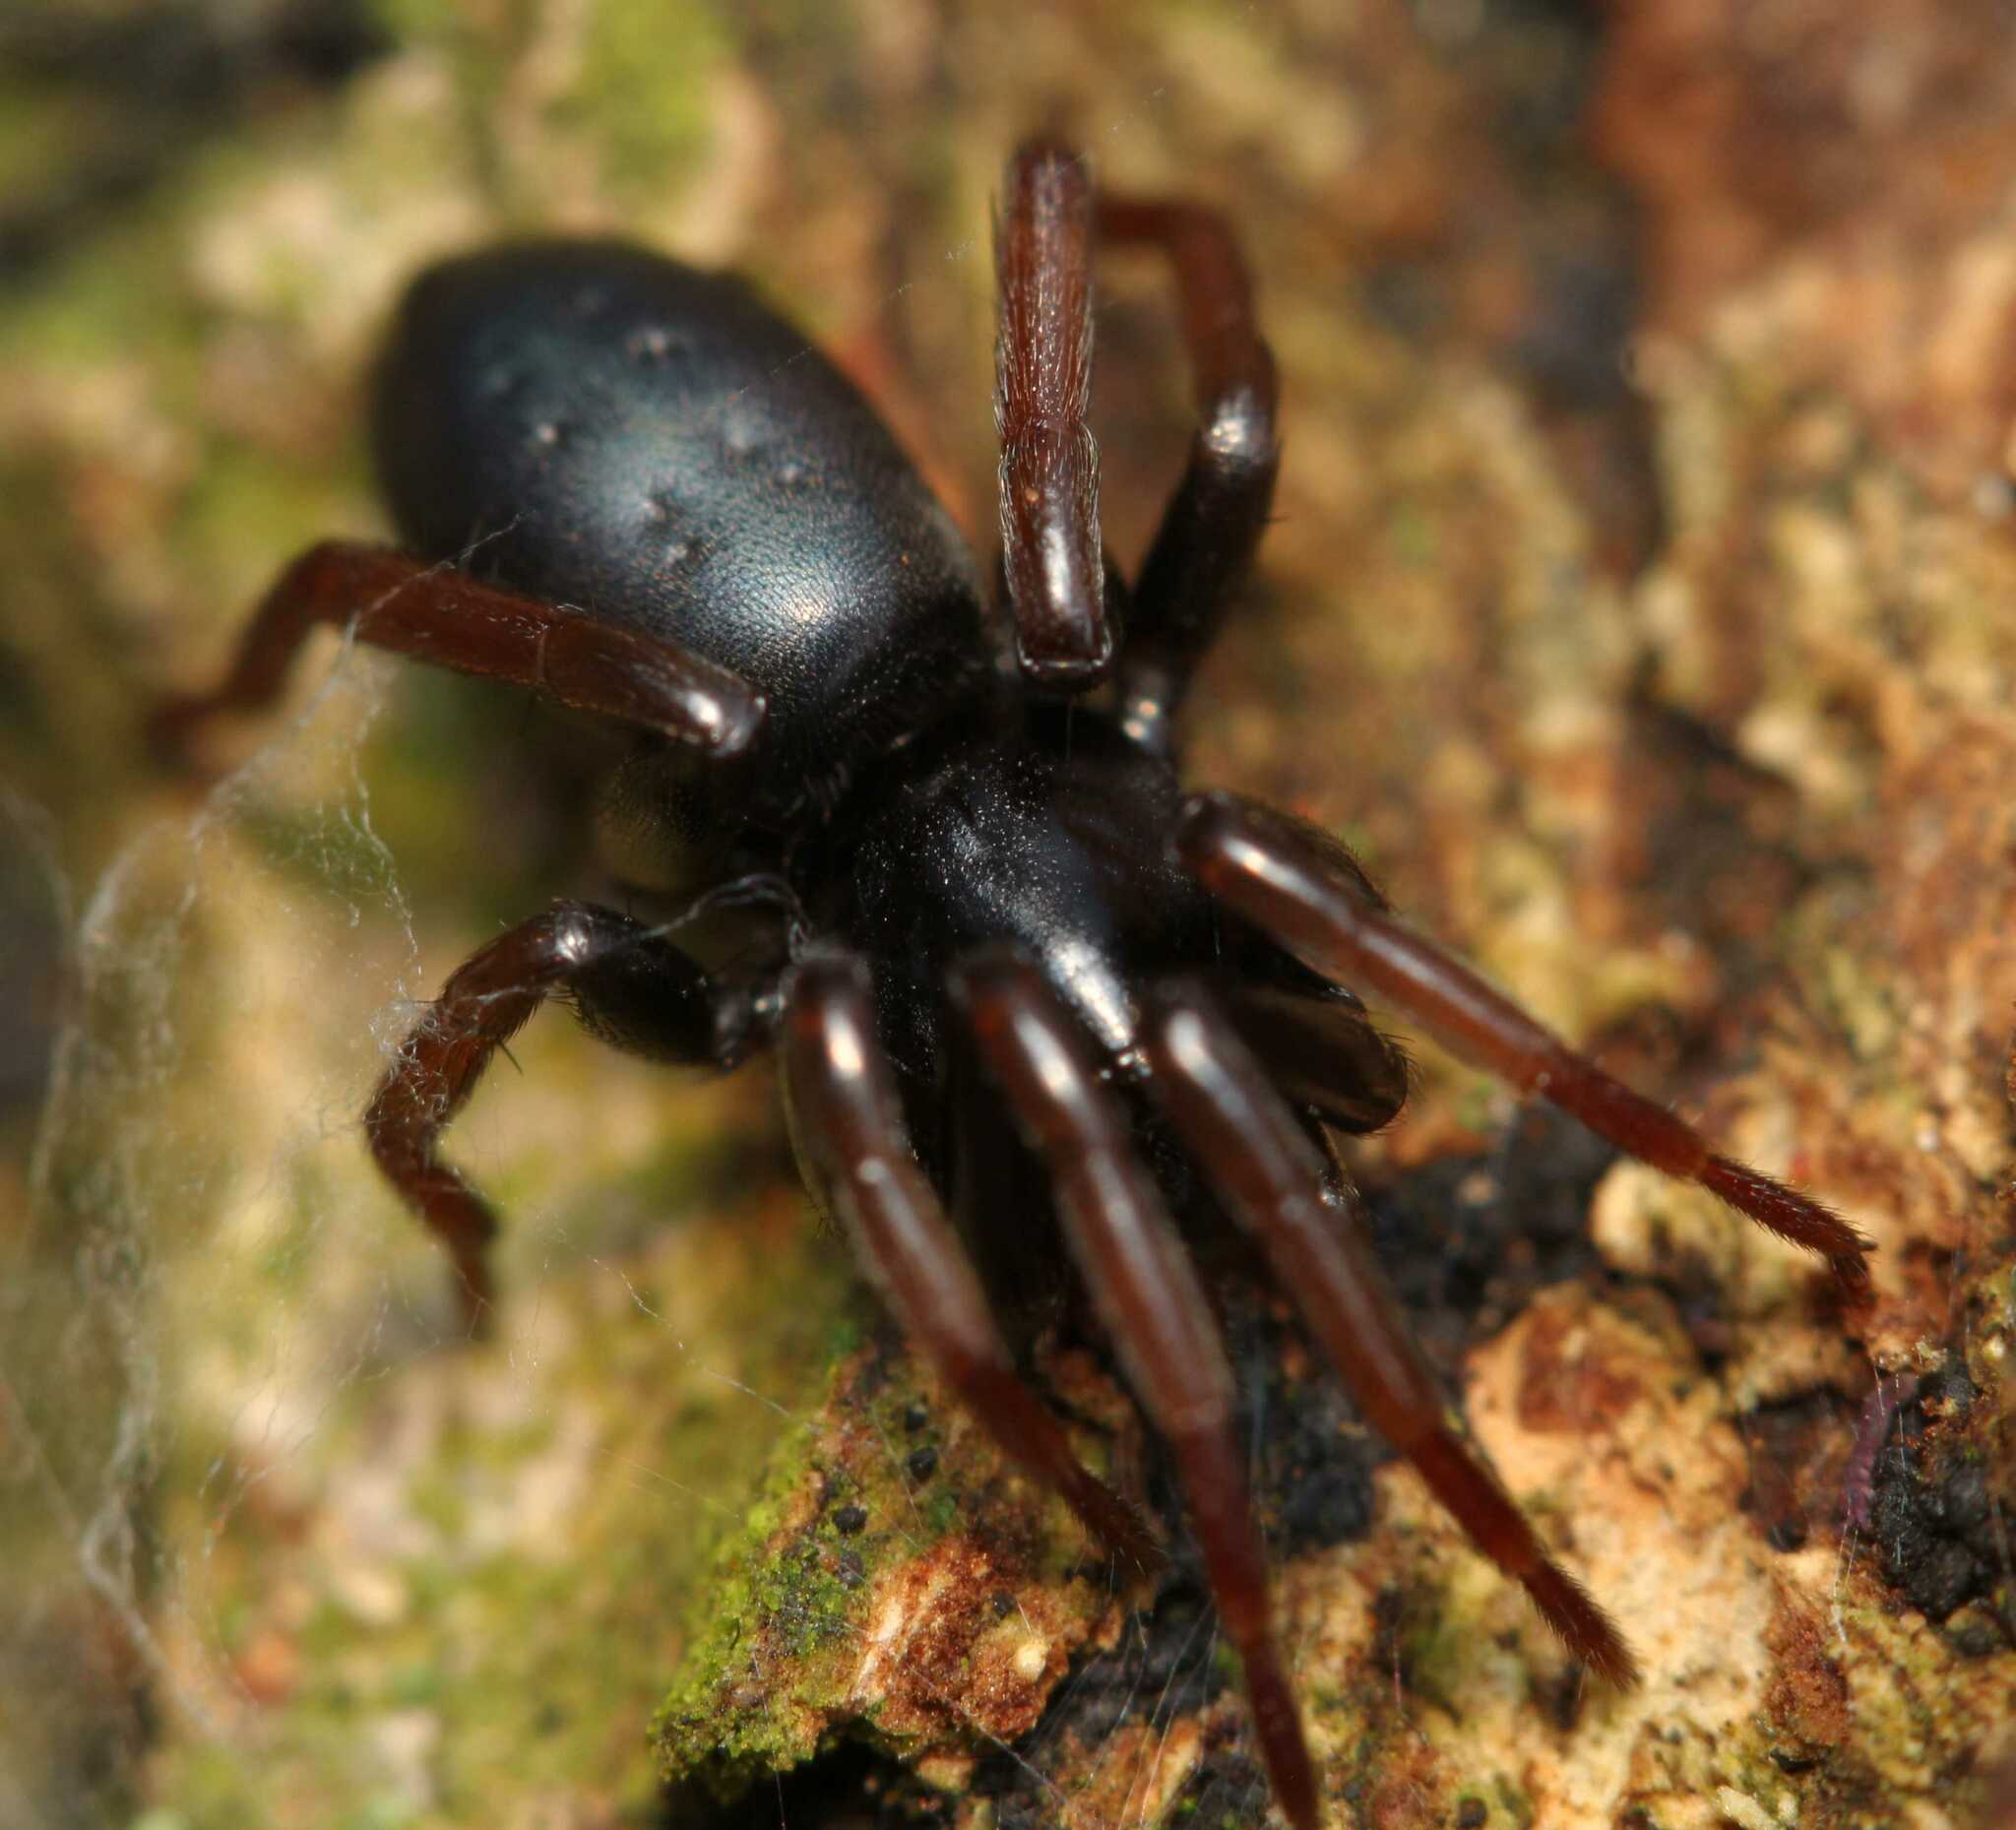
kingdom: Animalia
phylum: Arthropoda
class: Arachnida
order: Araneae
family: Gnaphosidae
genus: Trachyzelotes
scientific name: Trachyzelotes pedestris
